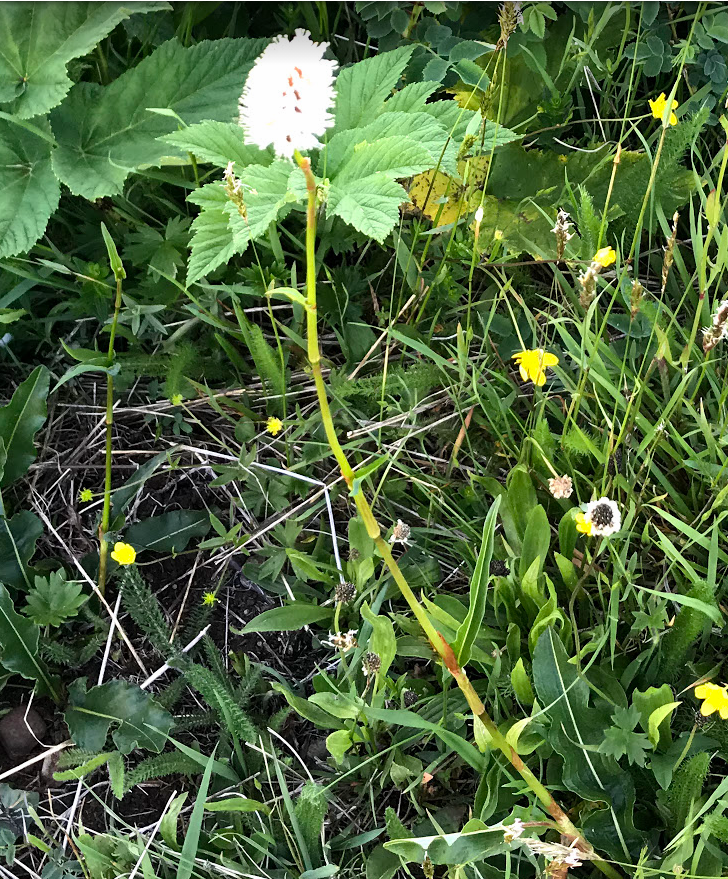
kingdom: Plantae
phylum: Tracheophyta
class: Magnoliopsida
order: Caryophyllales
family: Polygonaceae
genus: Bistorta
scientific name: Bistorta bistortoides
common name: American bistort
